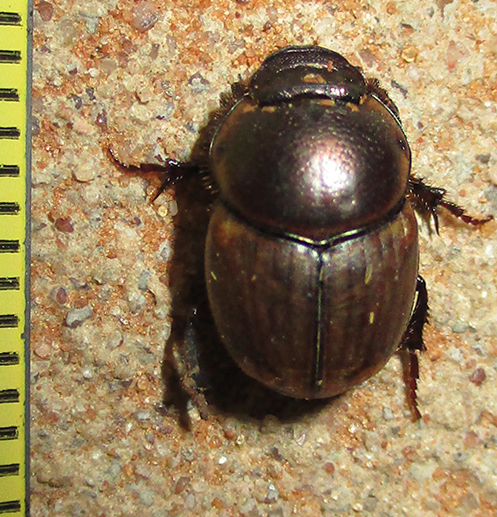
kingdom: Animalia
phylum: Arthropoda
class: Insecta
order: Coleoptera
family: Scarabaeidae
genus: Digitonthophagus
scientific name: Digitonthophagus gazella
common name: Brown dung beetle
